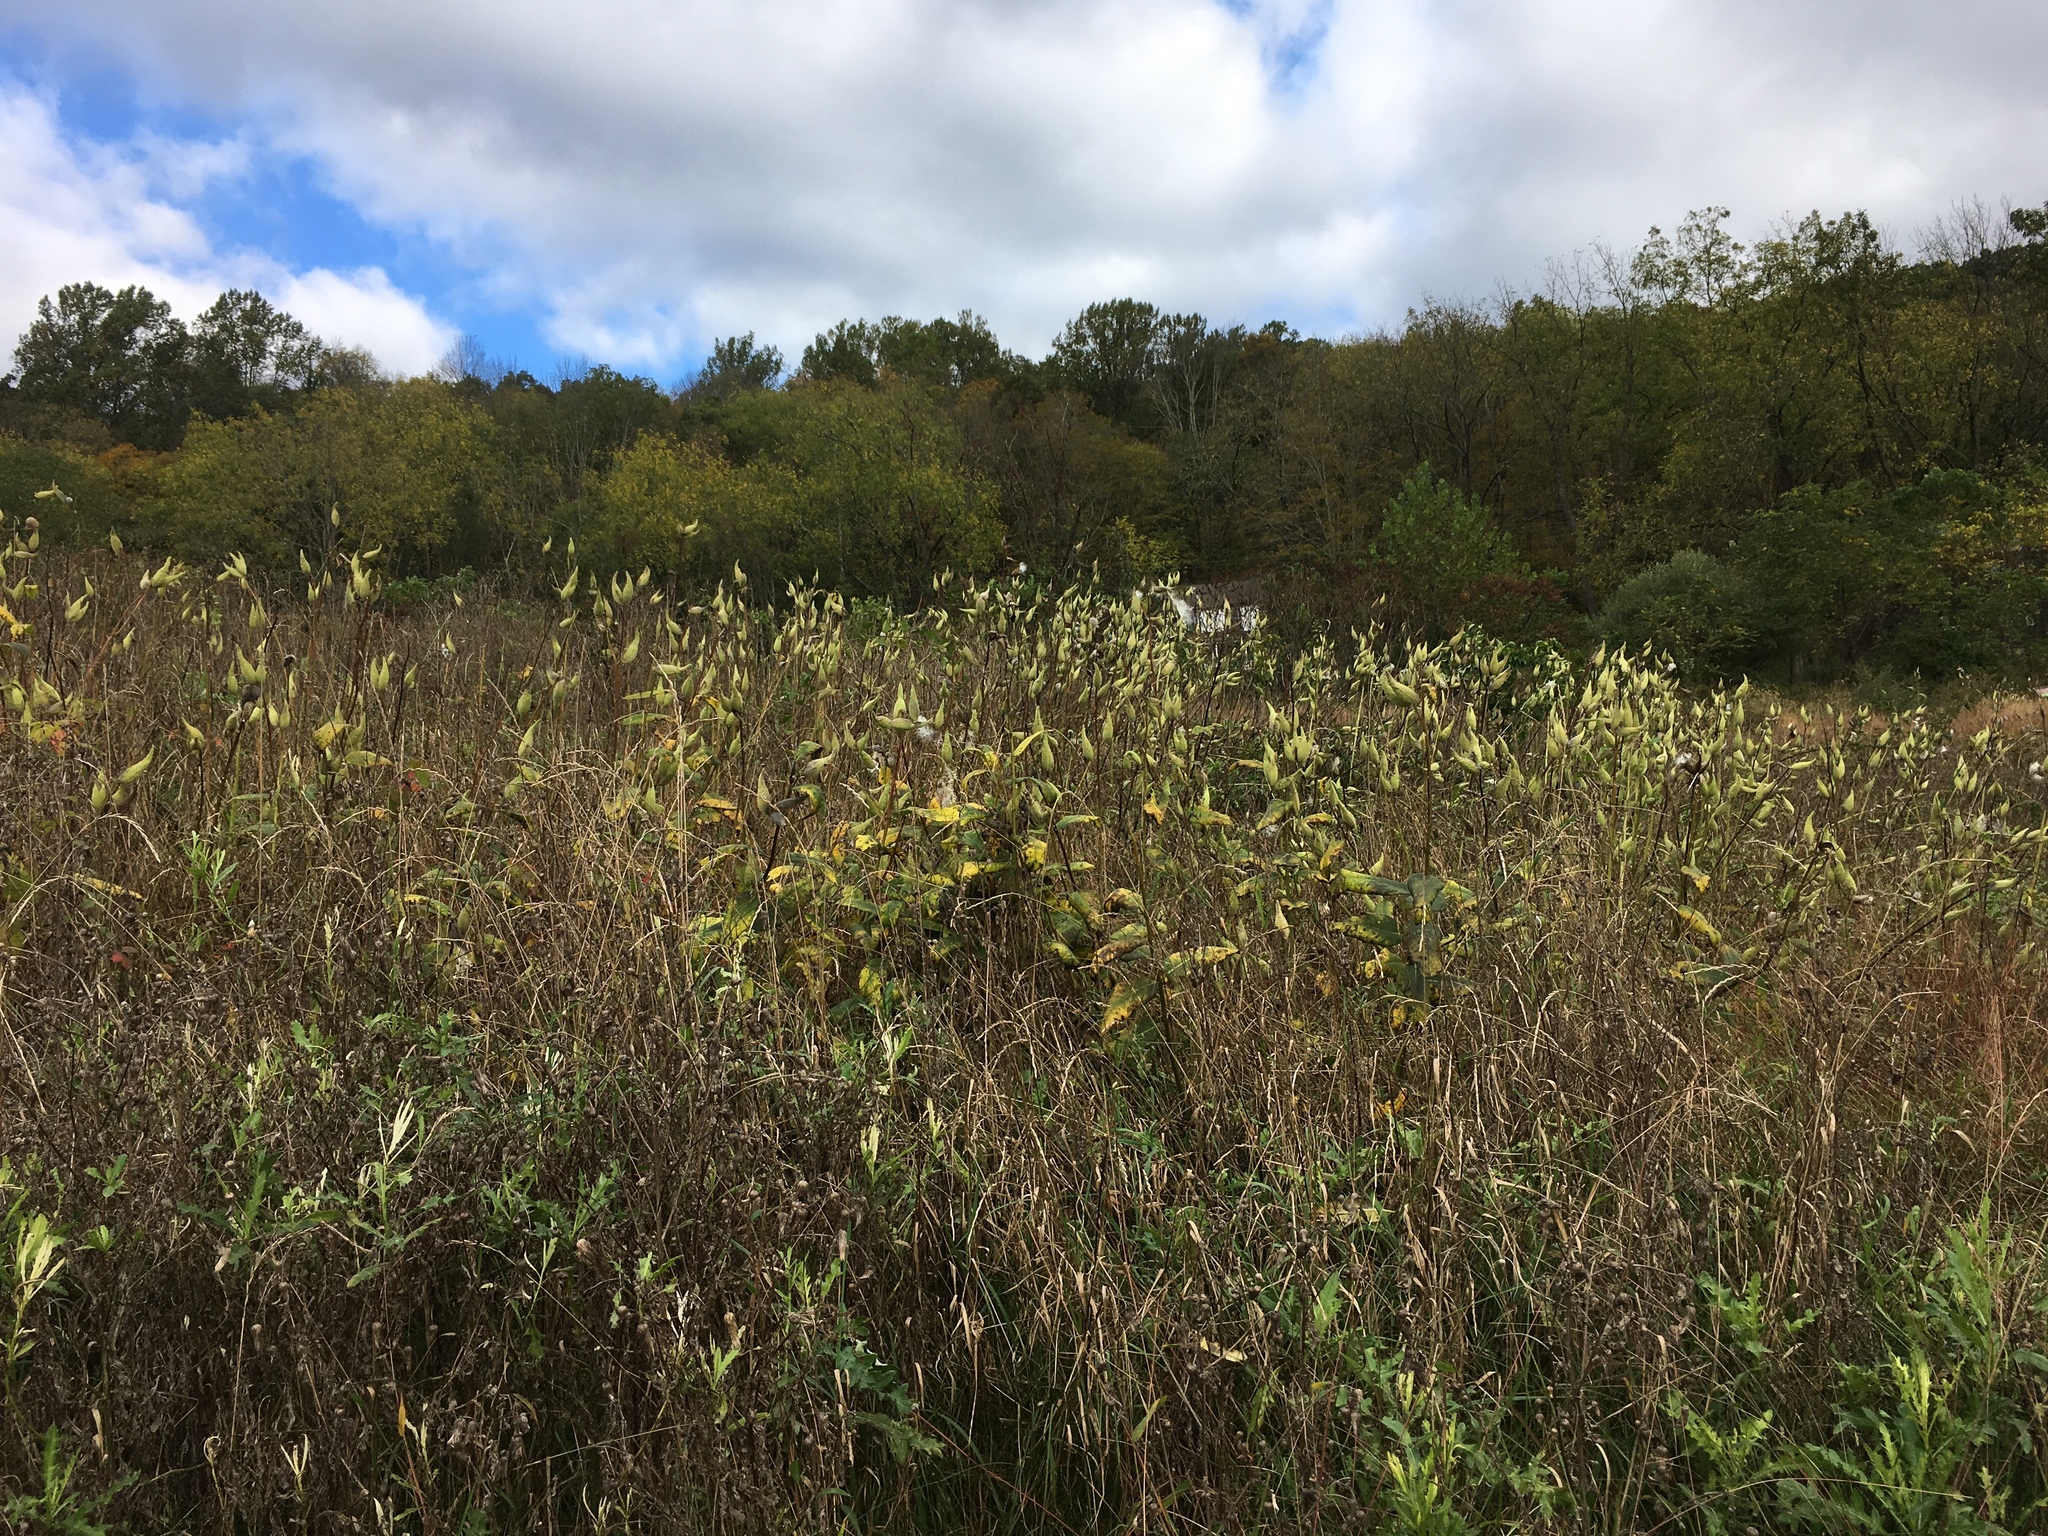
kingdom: Plantae
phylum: Tracheophyta
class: Magnoliopsida
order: Gentianales
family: Apocynaceae
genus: Asclepias
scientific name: Asclepias syriaca
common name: Common milkweed
